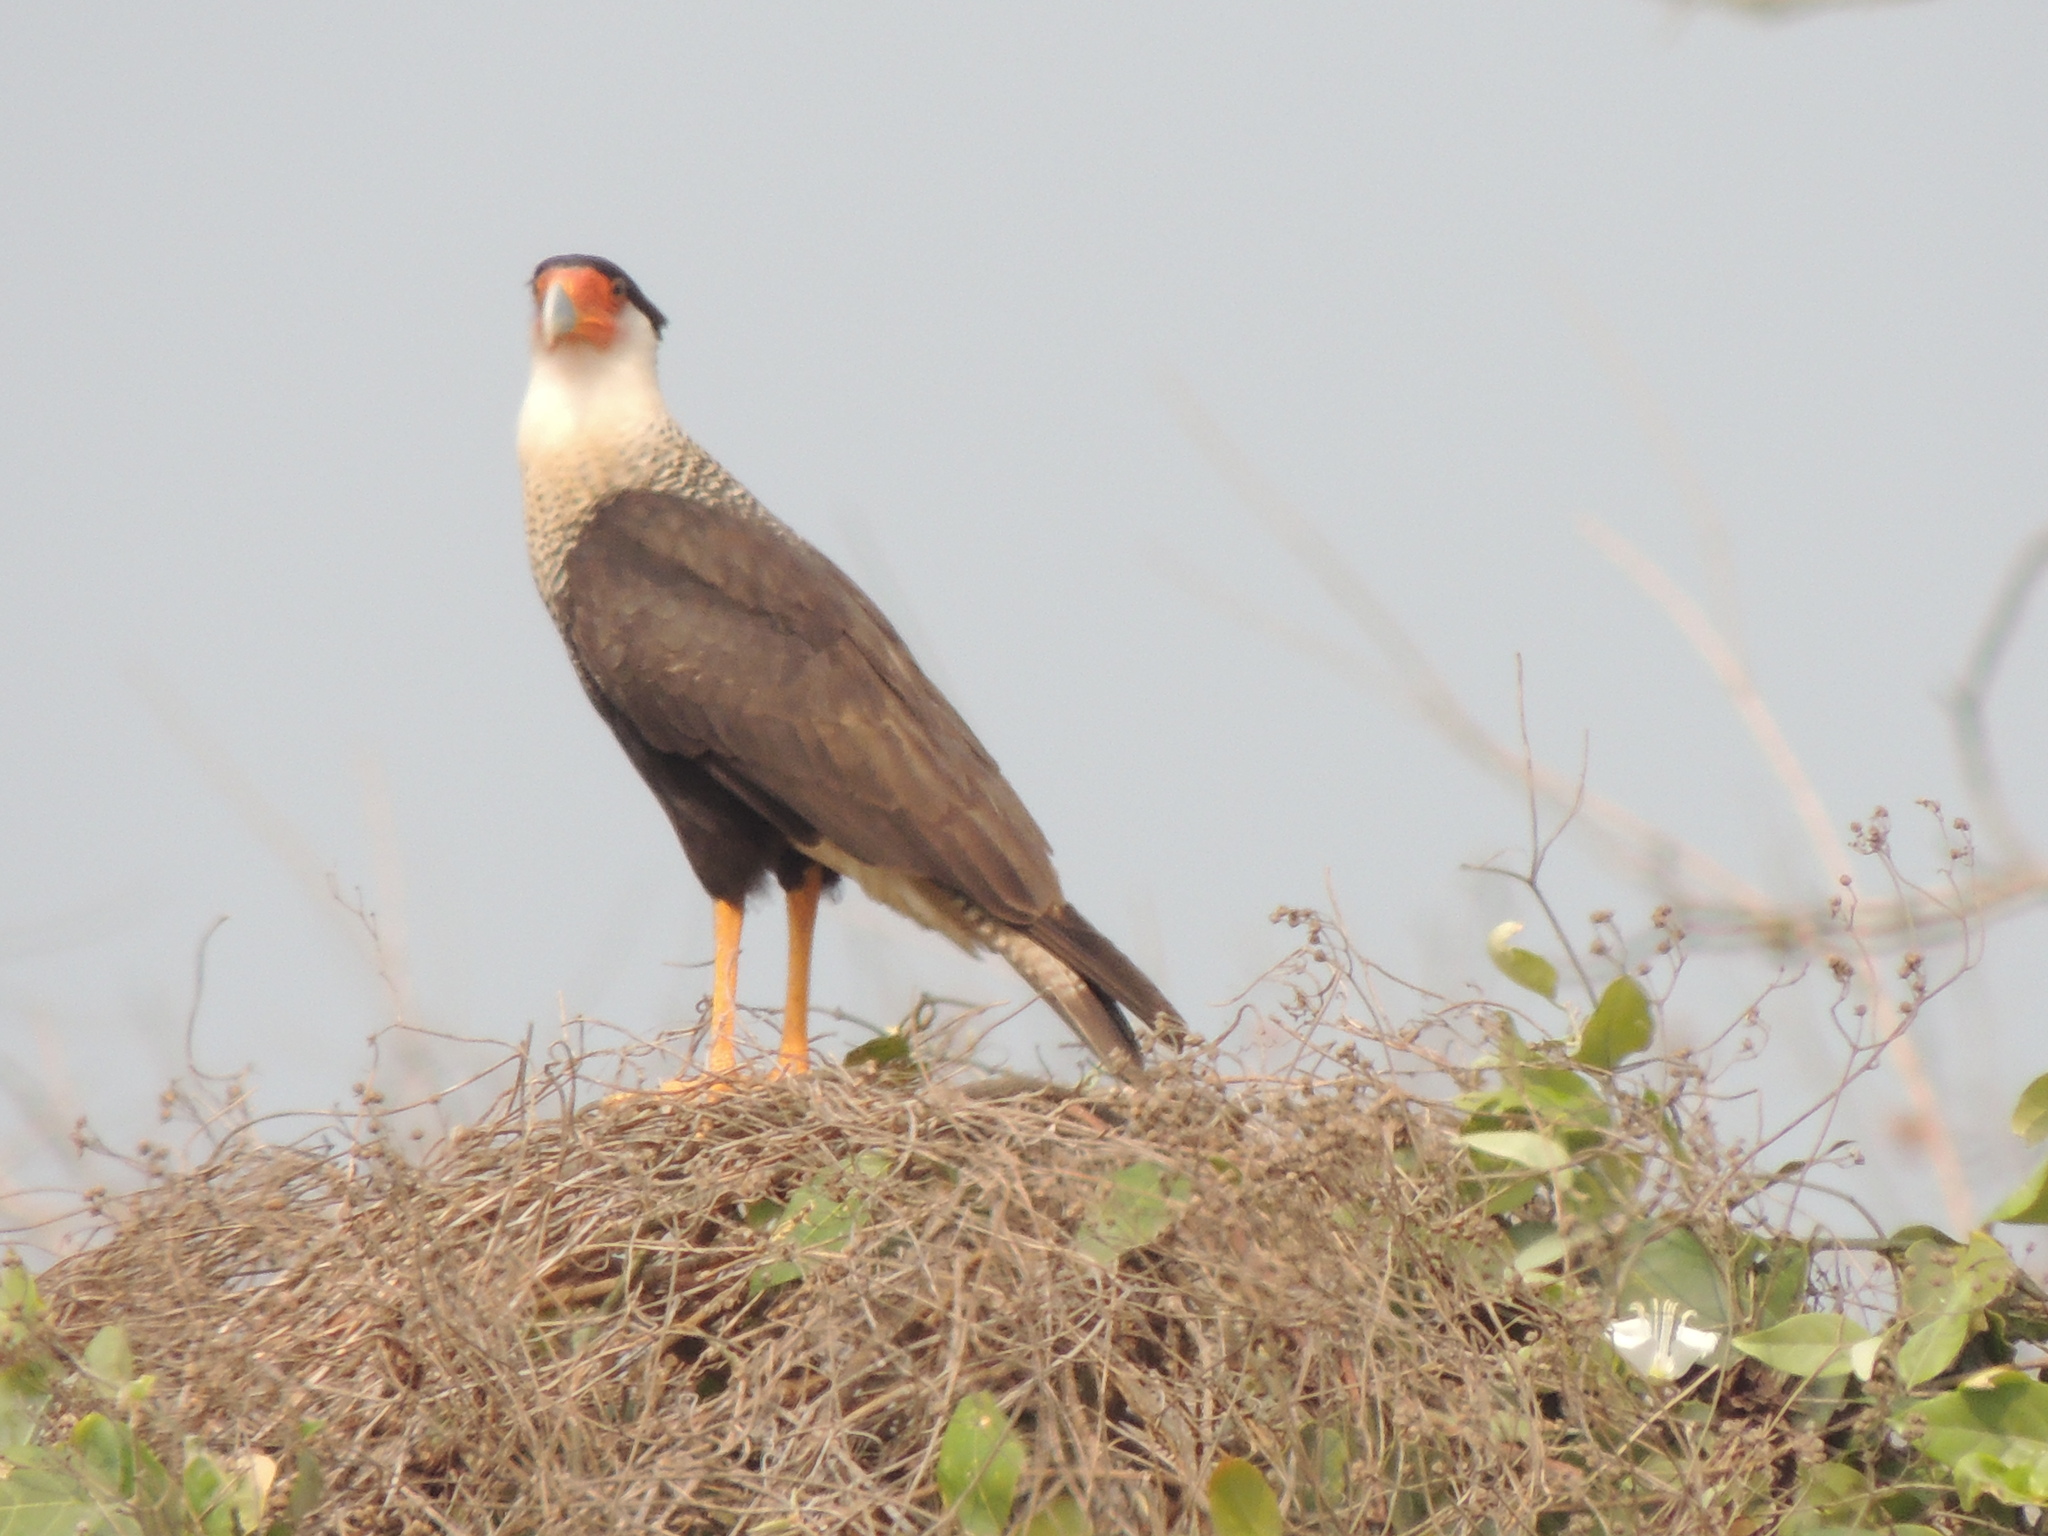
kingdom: Animalia
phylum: Chordata
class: Aves
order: Falconiformes
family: Falconidae
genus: Caracara
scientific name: Caracara plancus
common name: Southern caracara
